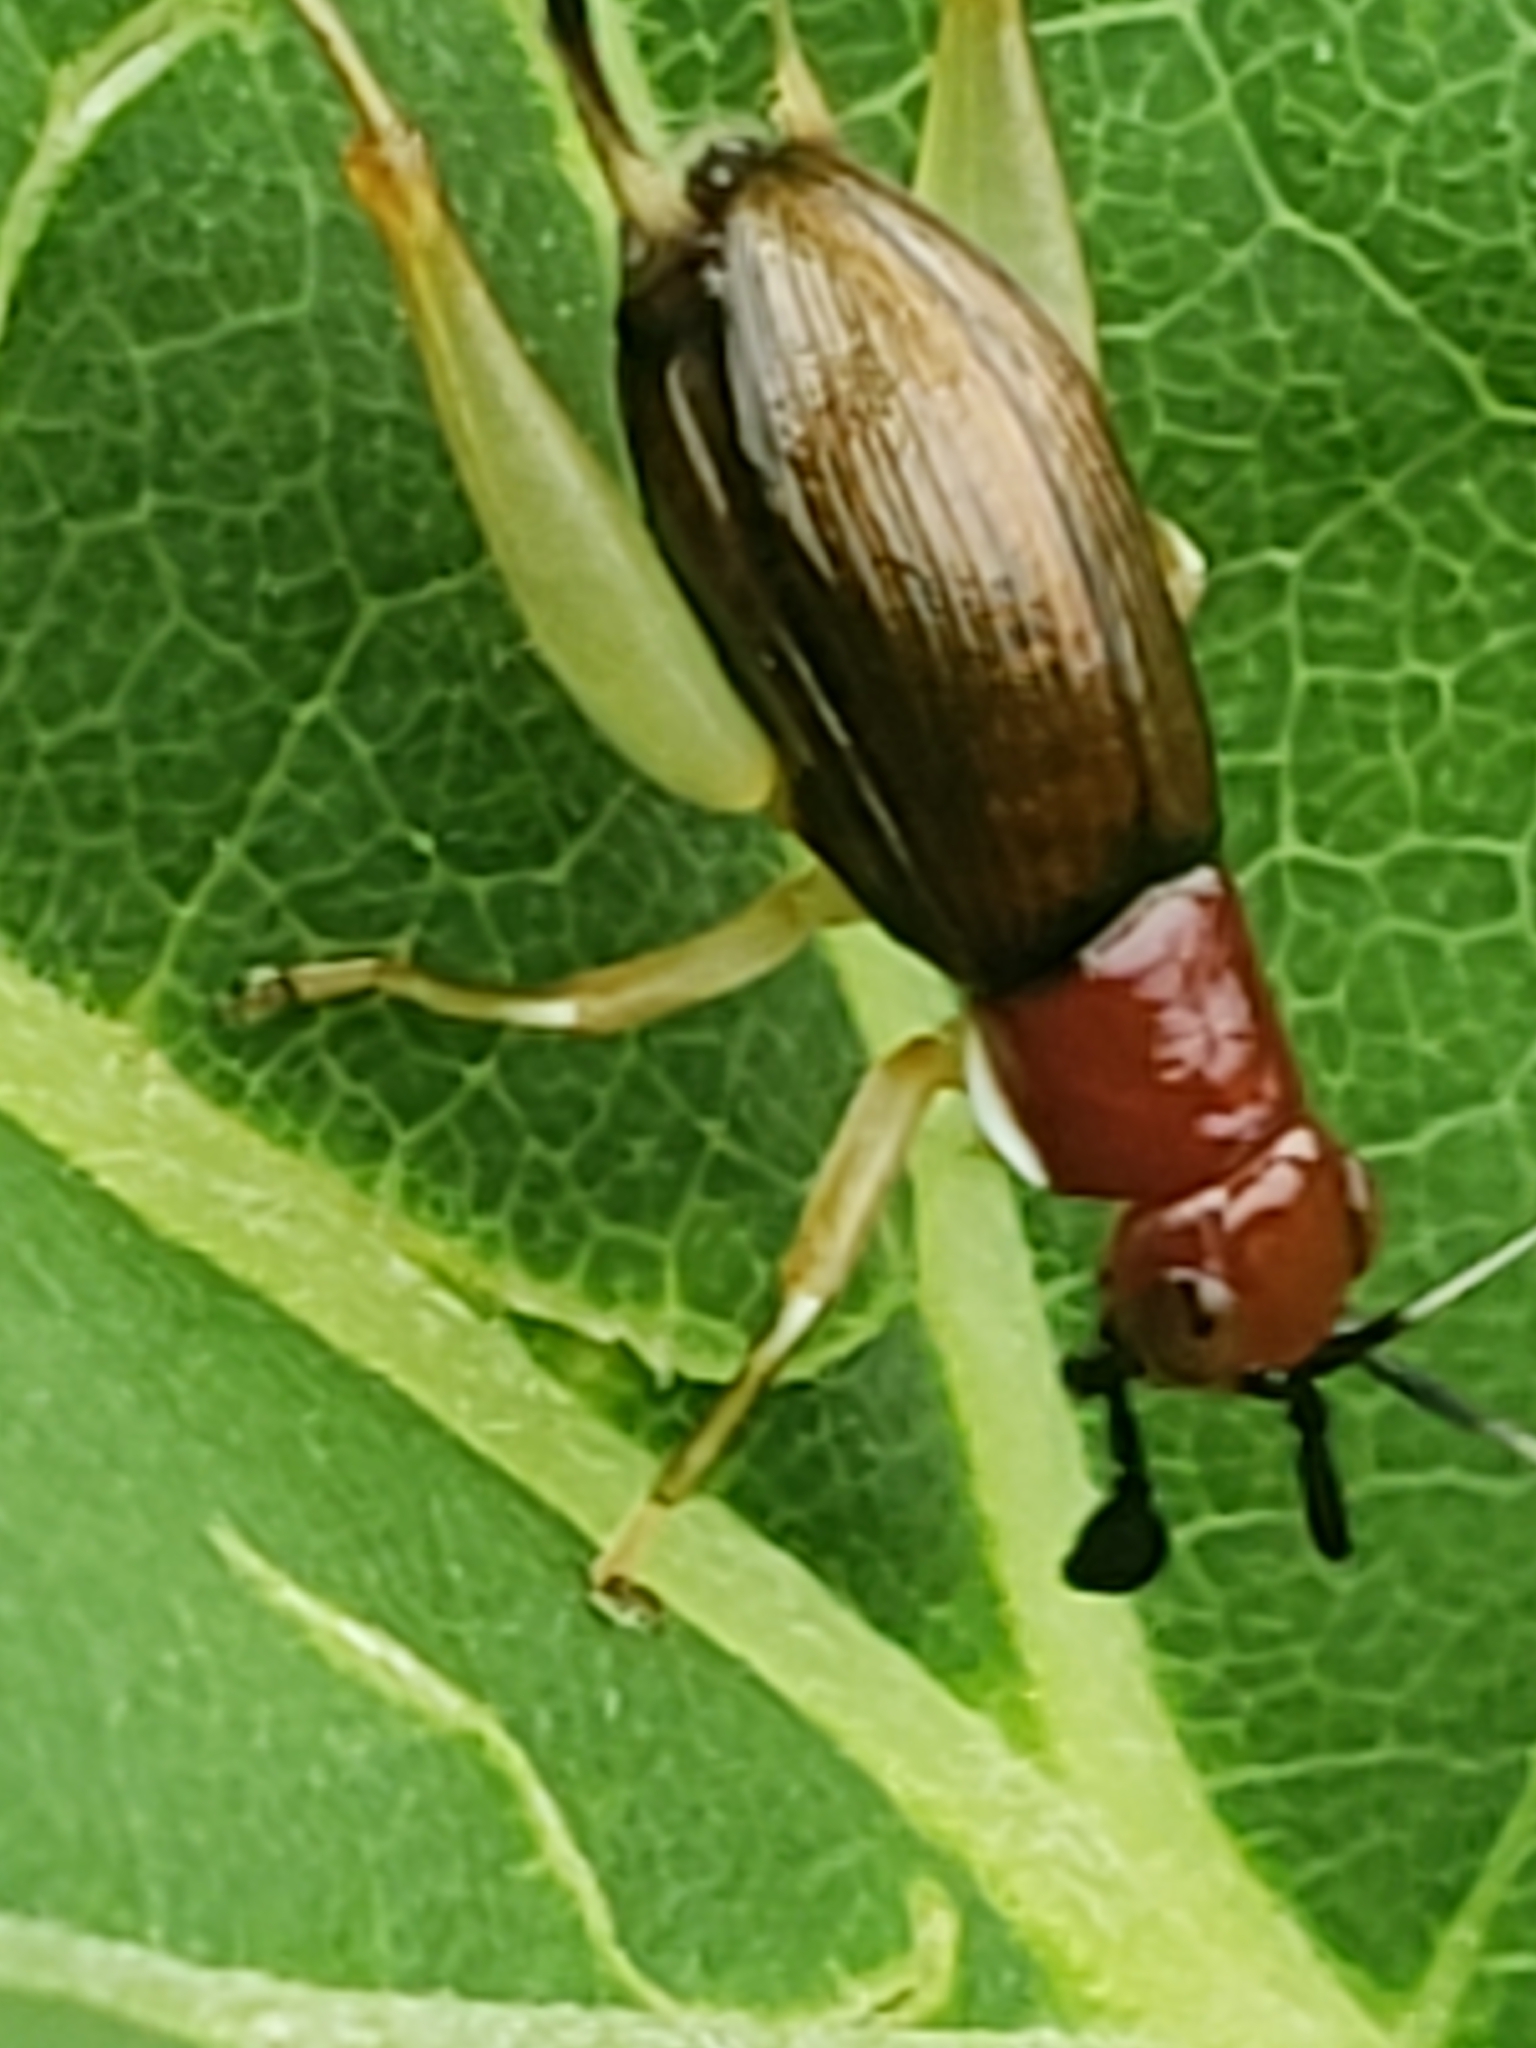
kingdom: Animalia
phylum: Arthropoda
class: Insecta
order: Orthoptera
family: Trigonidiidae
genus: Phyllopalpus
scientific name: Phyllopalpus pulchellus
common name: Handsome trig
